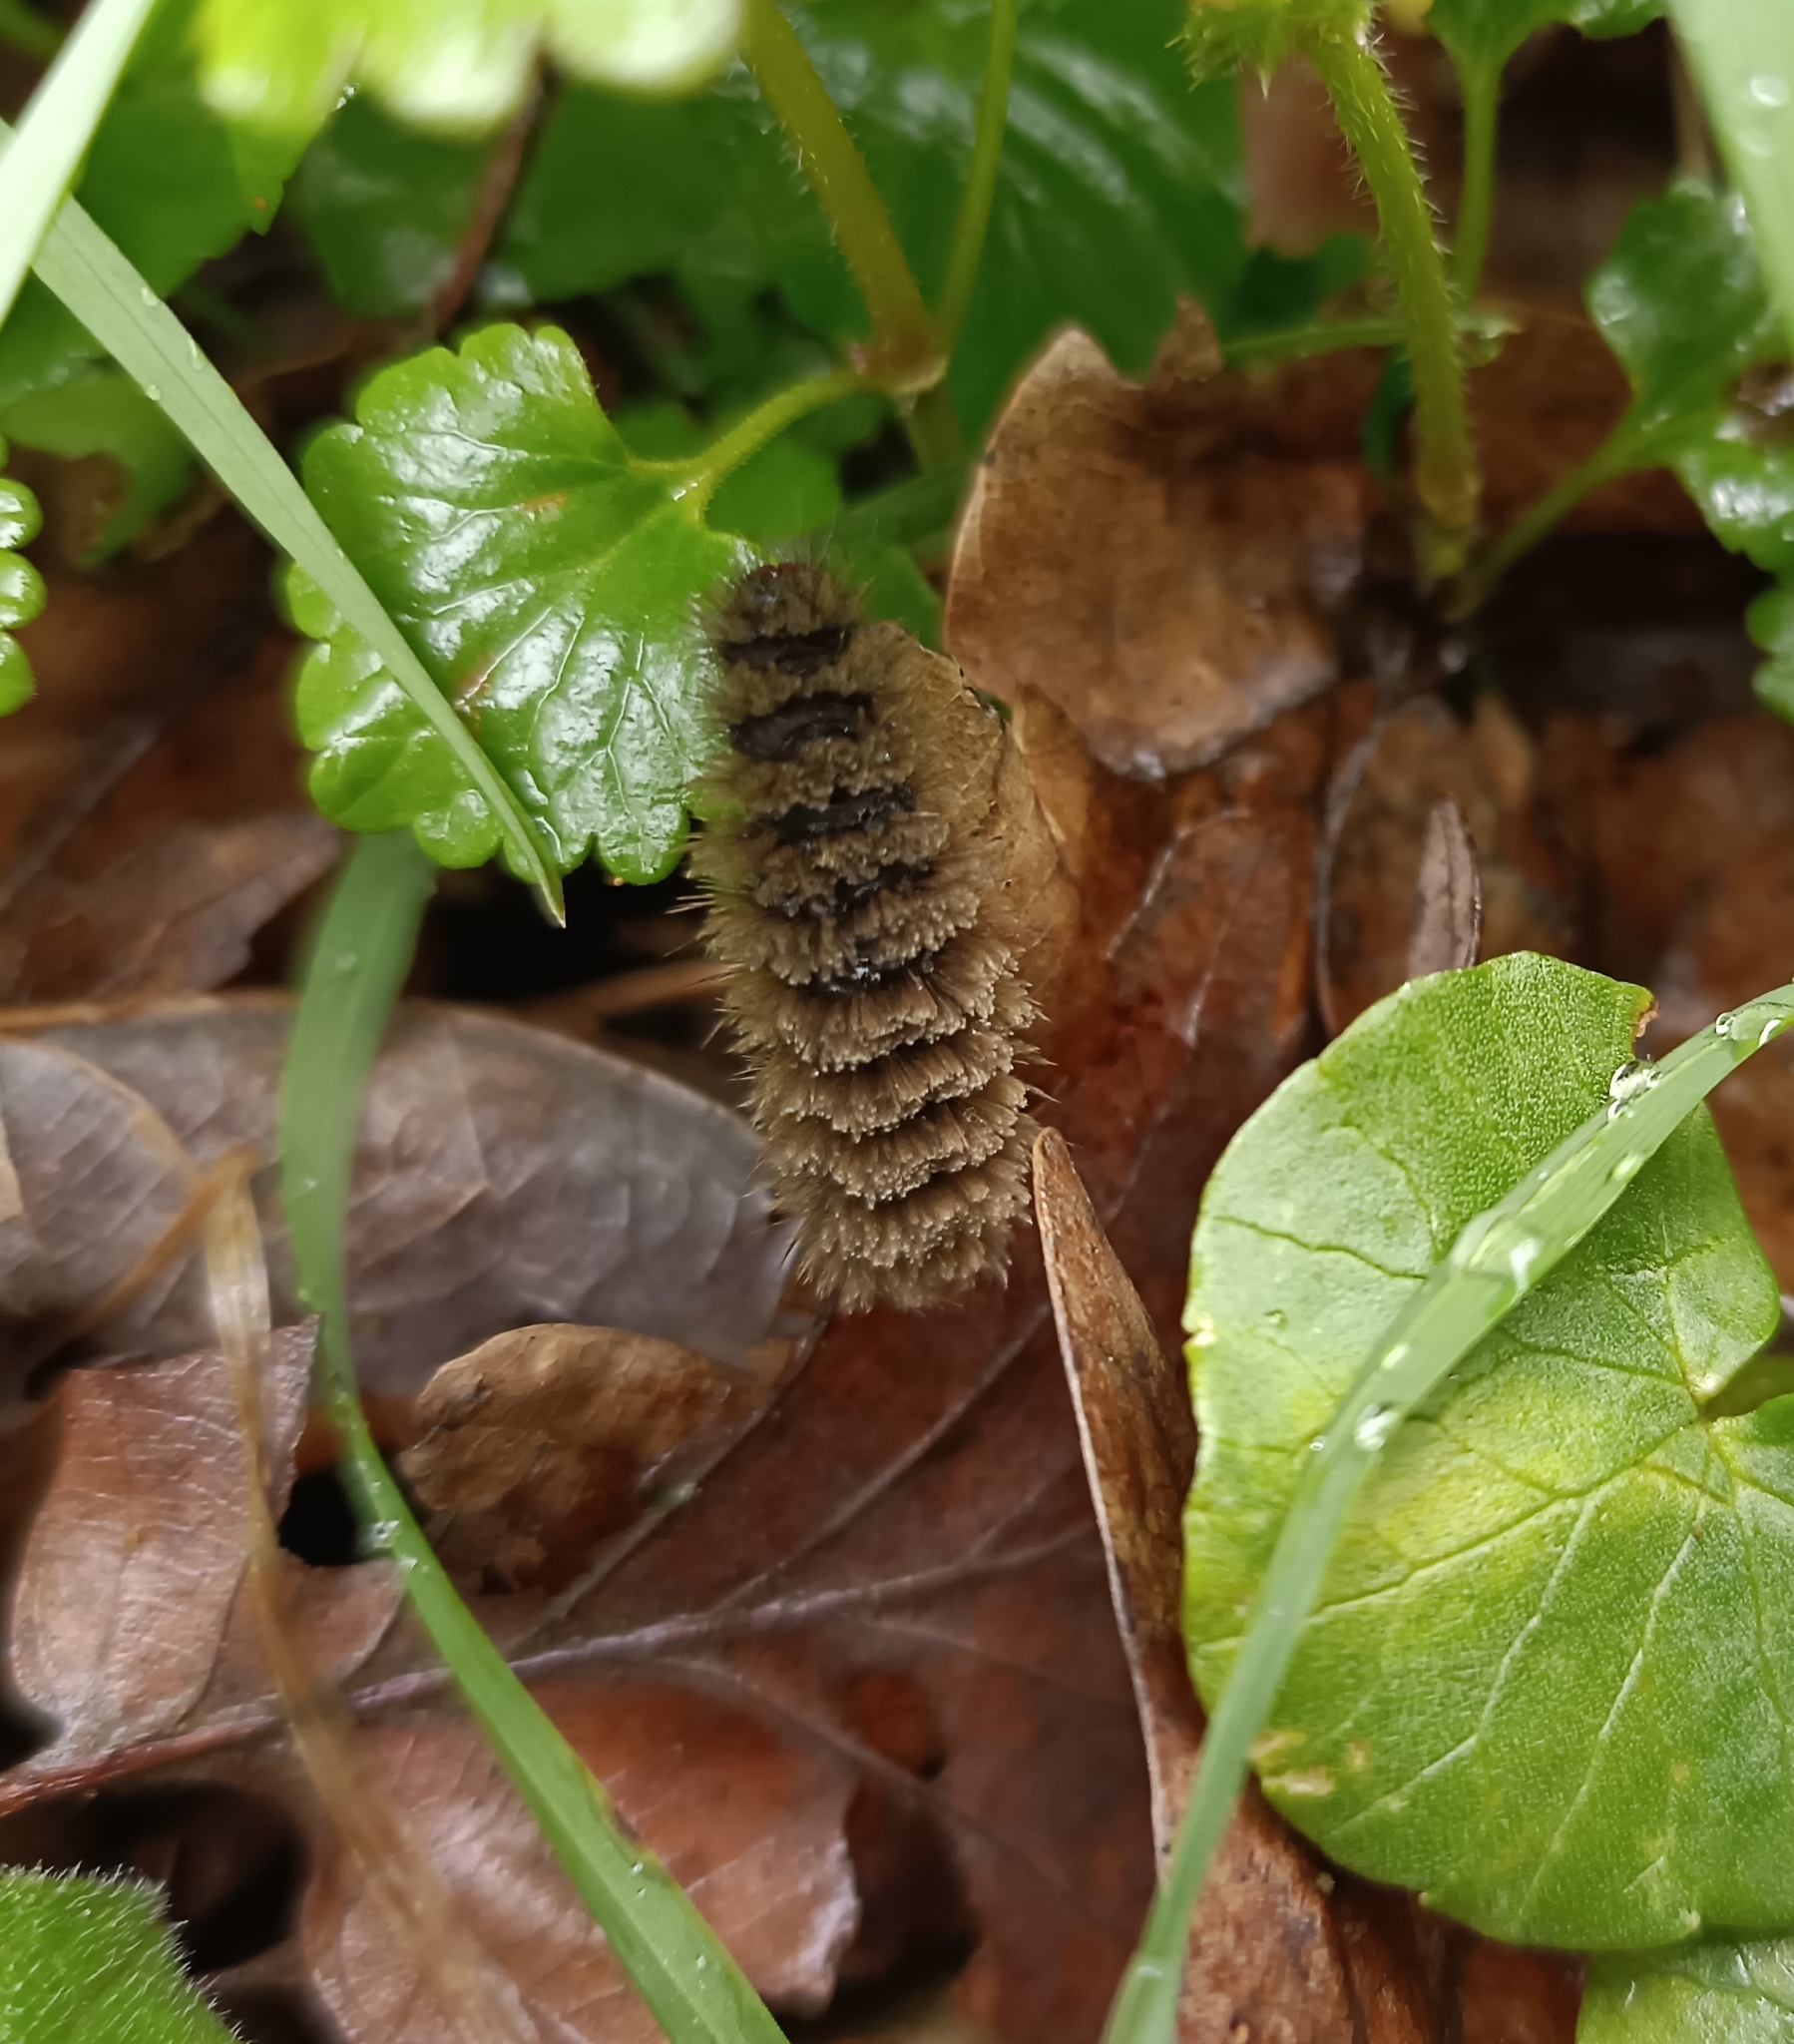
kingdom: Animalia
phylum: Arthropoda
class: Insecta
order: Lepidoptera
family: Erebidae
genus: Amata
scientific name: Amata phegea
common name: Nine-spotted
